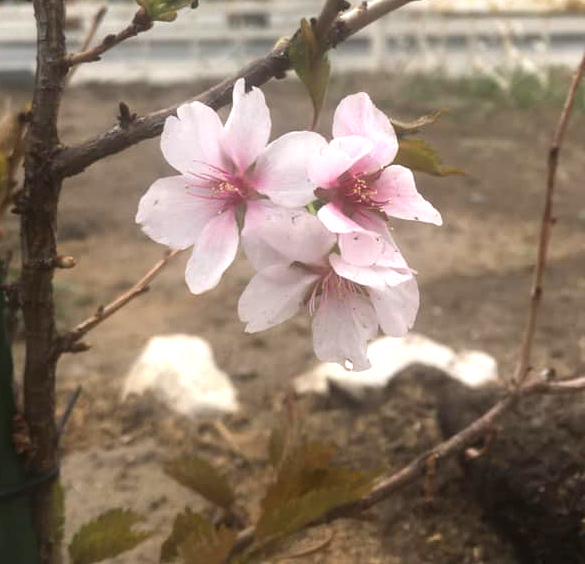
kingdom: Plantae
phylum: Tracheophyta
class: Magnoliopsida
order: Rosales
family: Rosaceae
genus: Prunus
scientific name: Prunus sibirica
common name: Siberian apricot
